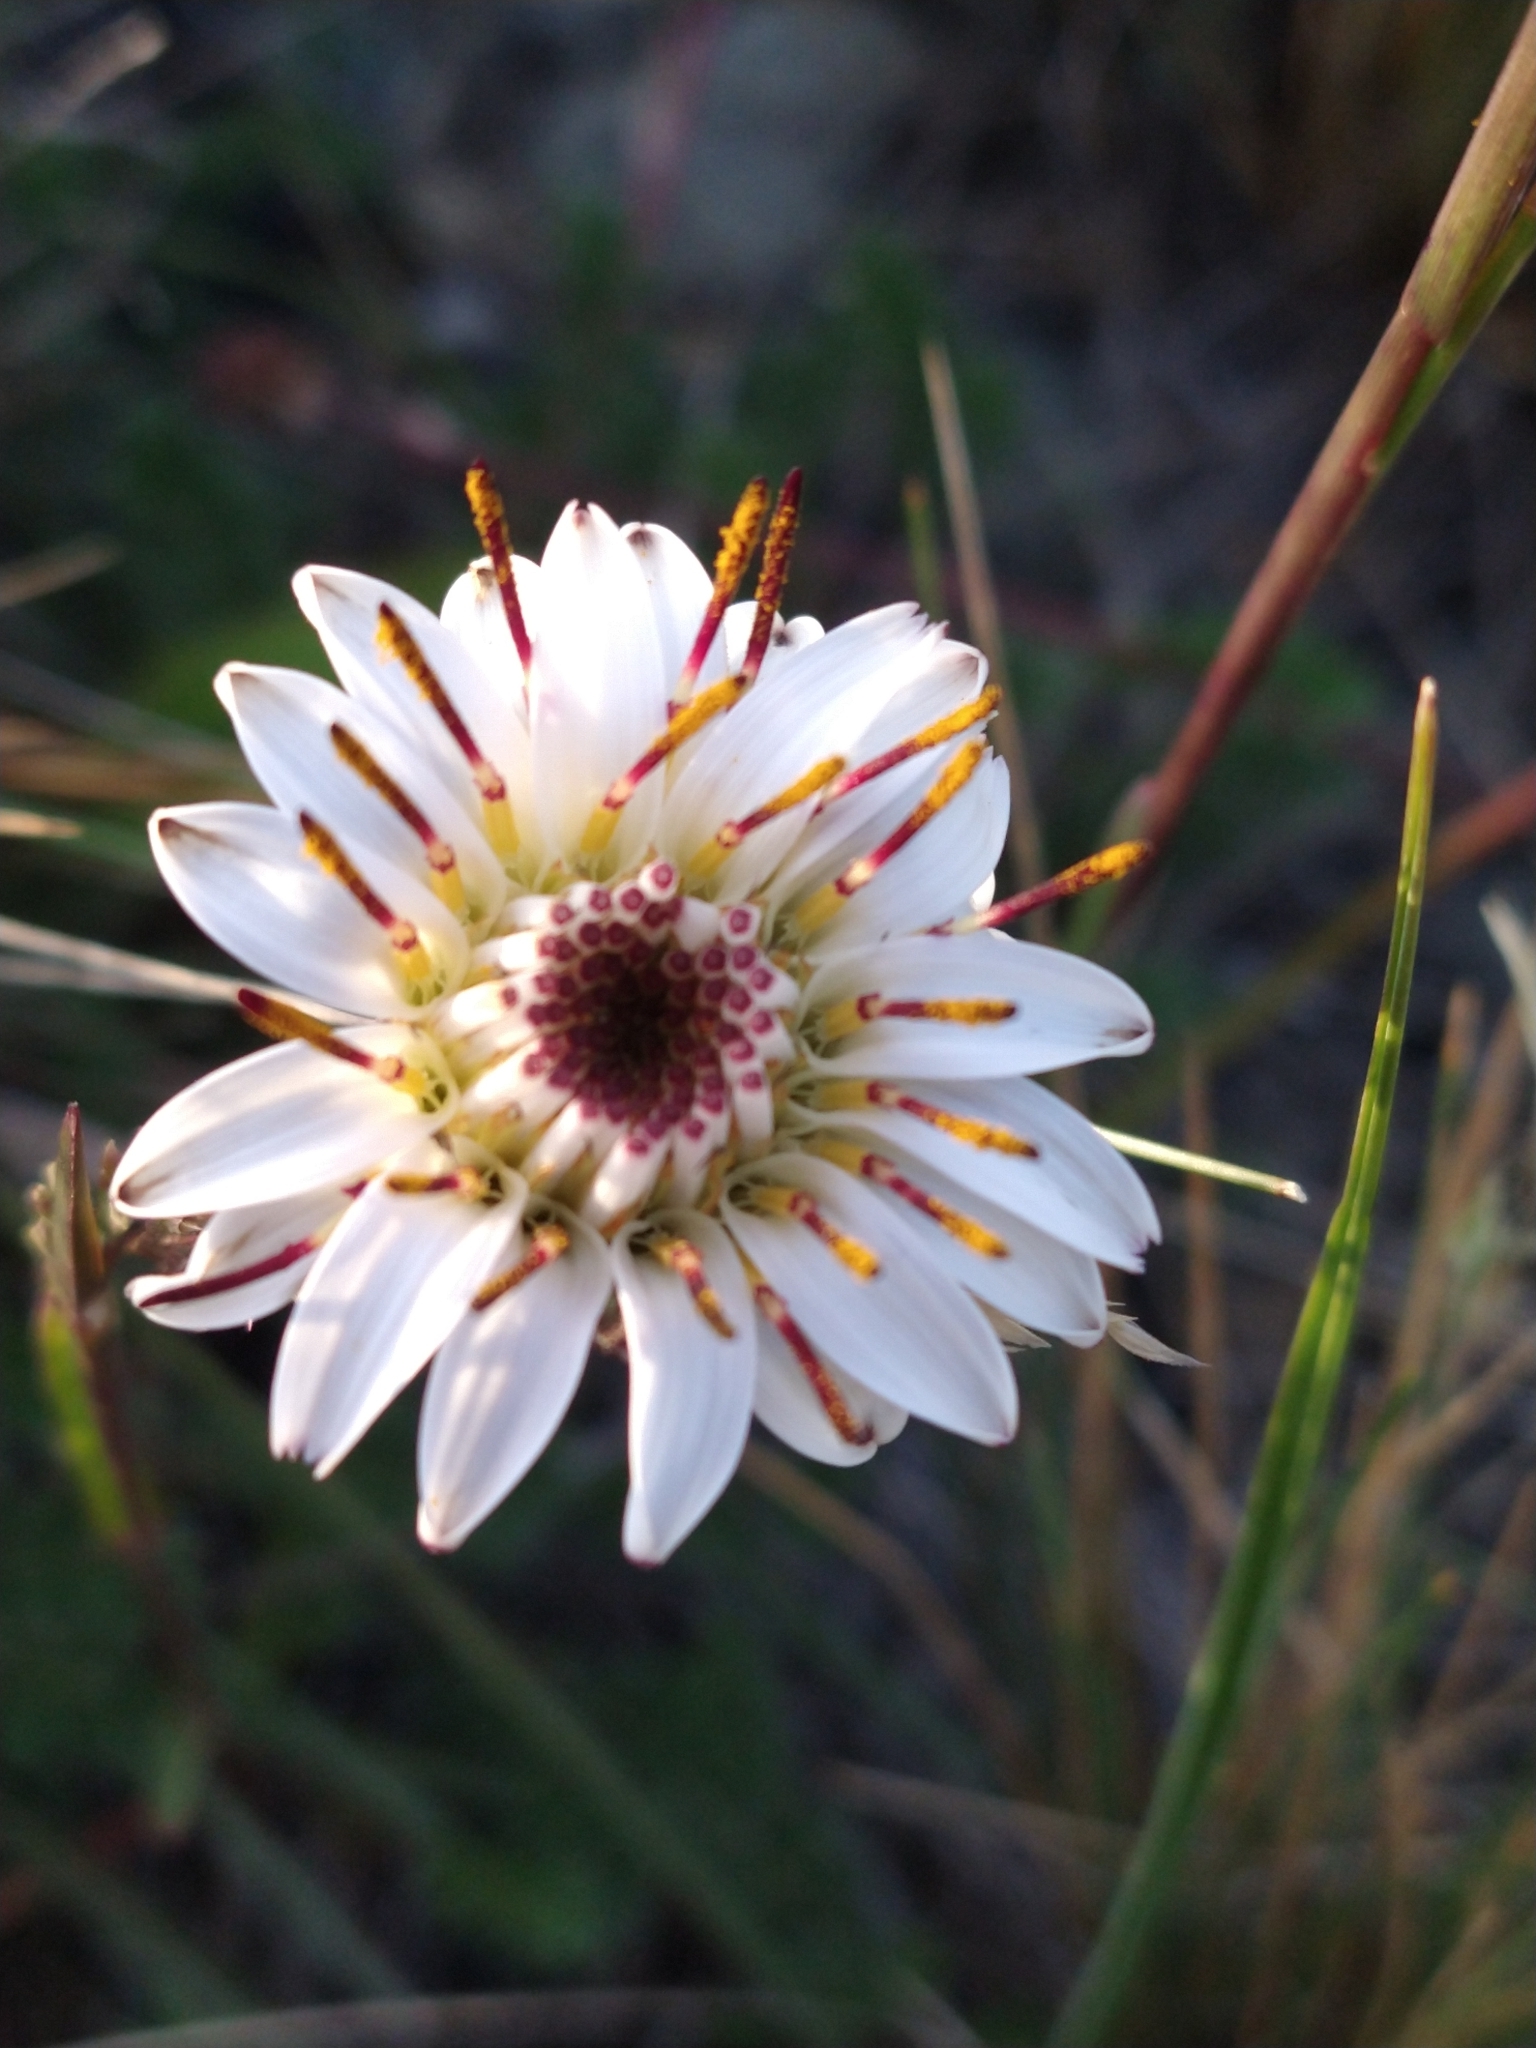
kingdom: Plantae
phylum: Tracheophyta
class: Magnoliopsida
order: Asterales
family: Asteraceae
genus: Hypochaeris
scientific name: Hypochaeris incana
